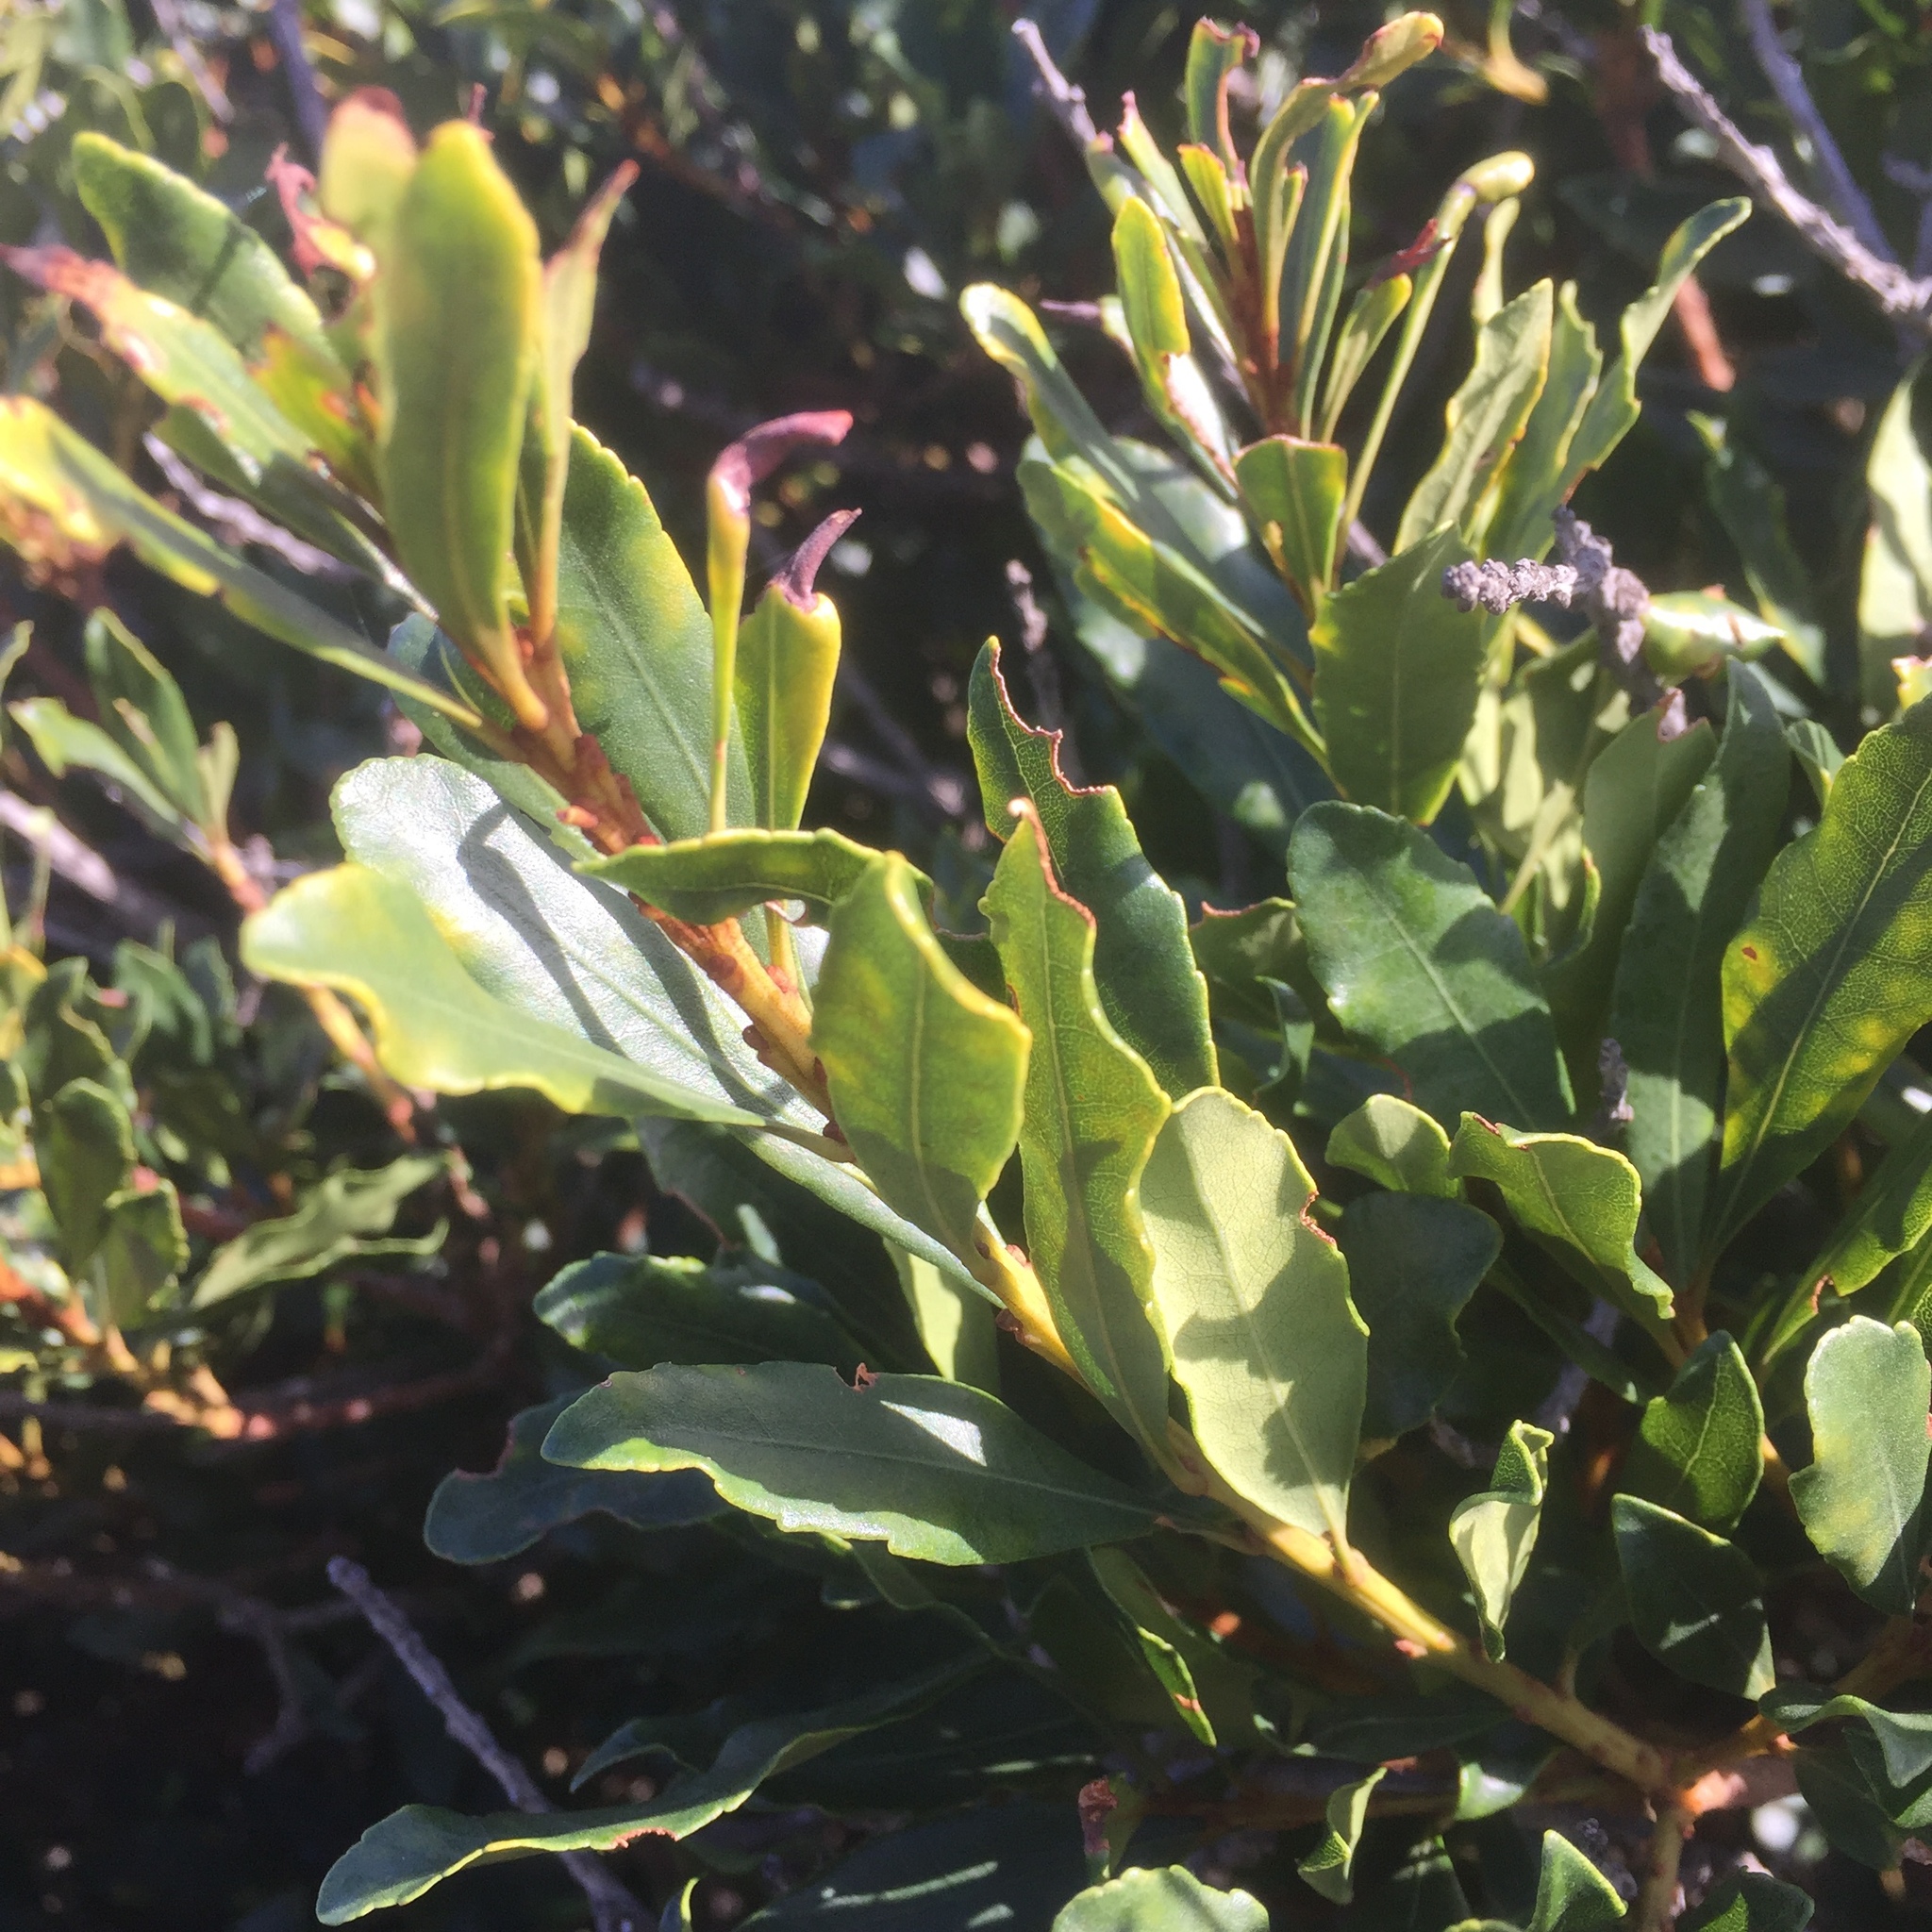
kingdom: Plantae
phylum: Tracheophyta
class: Magnoliopsida
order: Fagales
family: Myricaceae
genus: Morella
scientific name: Morella faya
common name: Firetree
